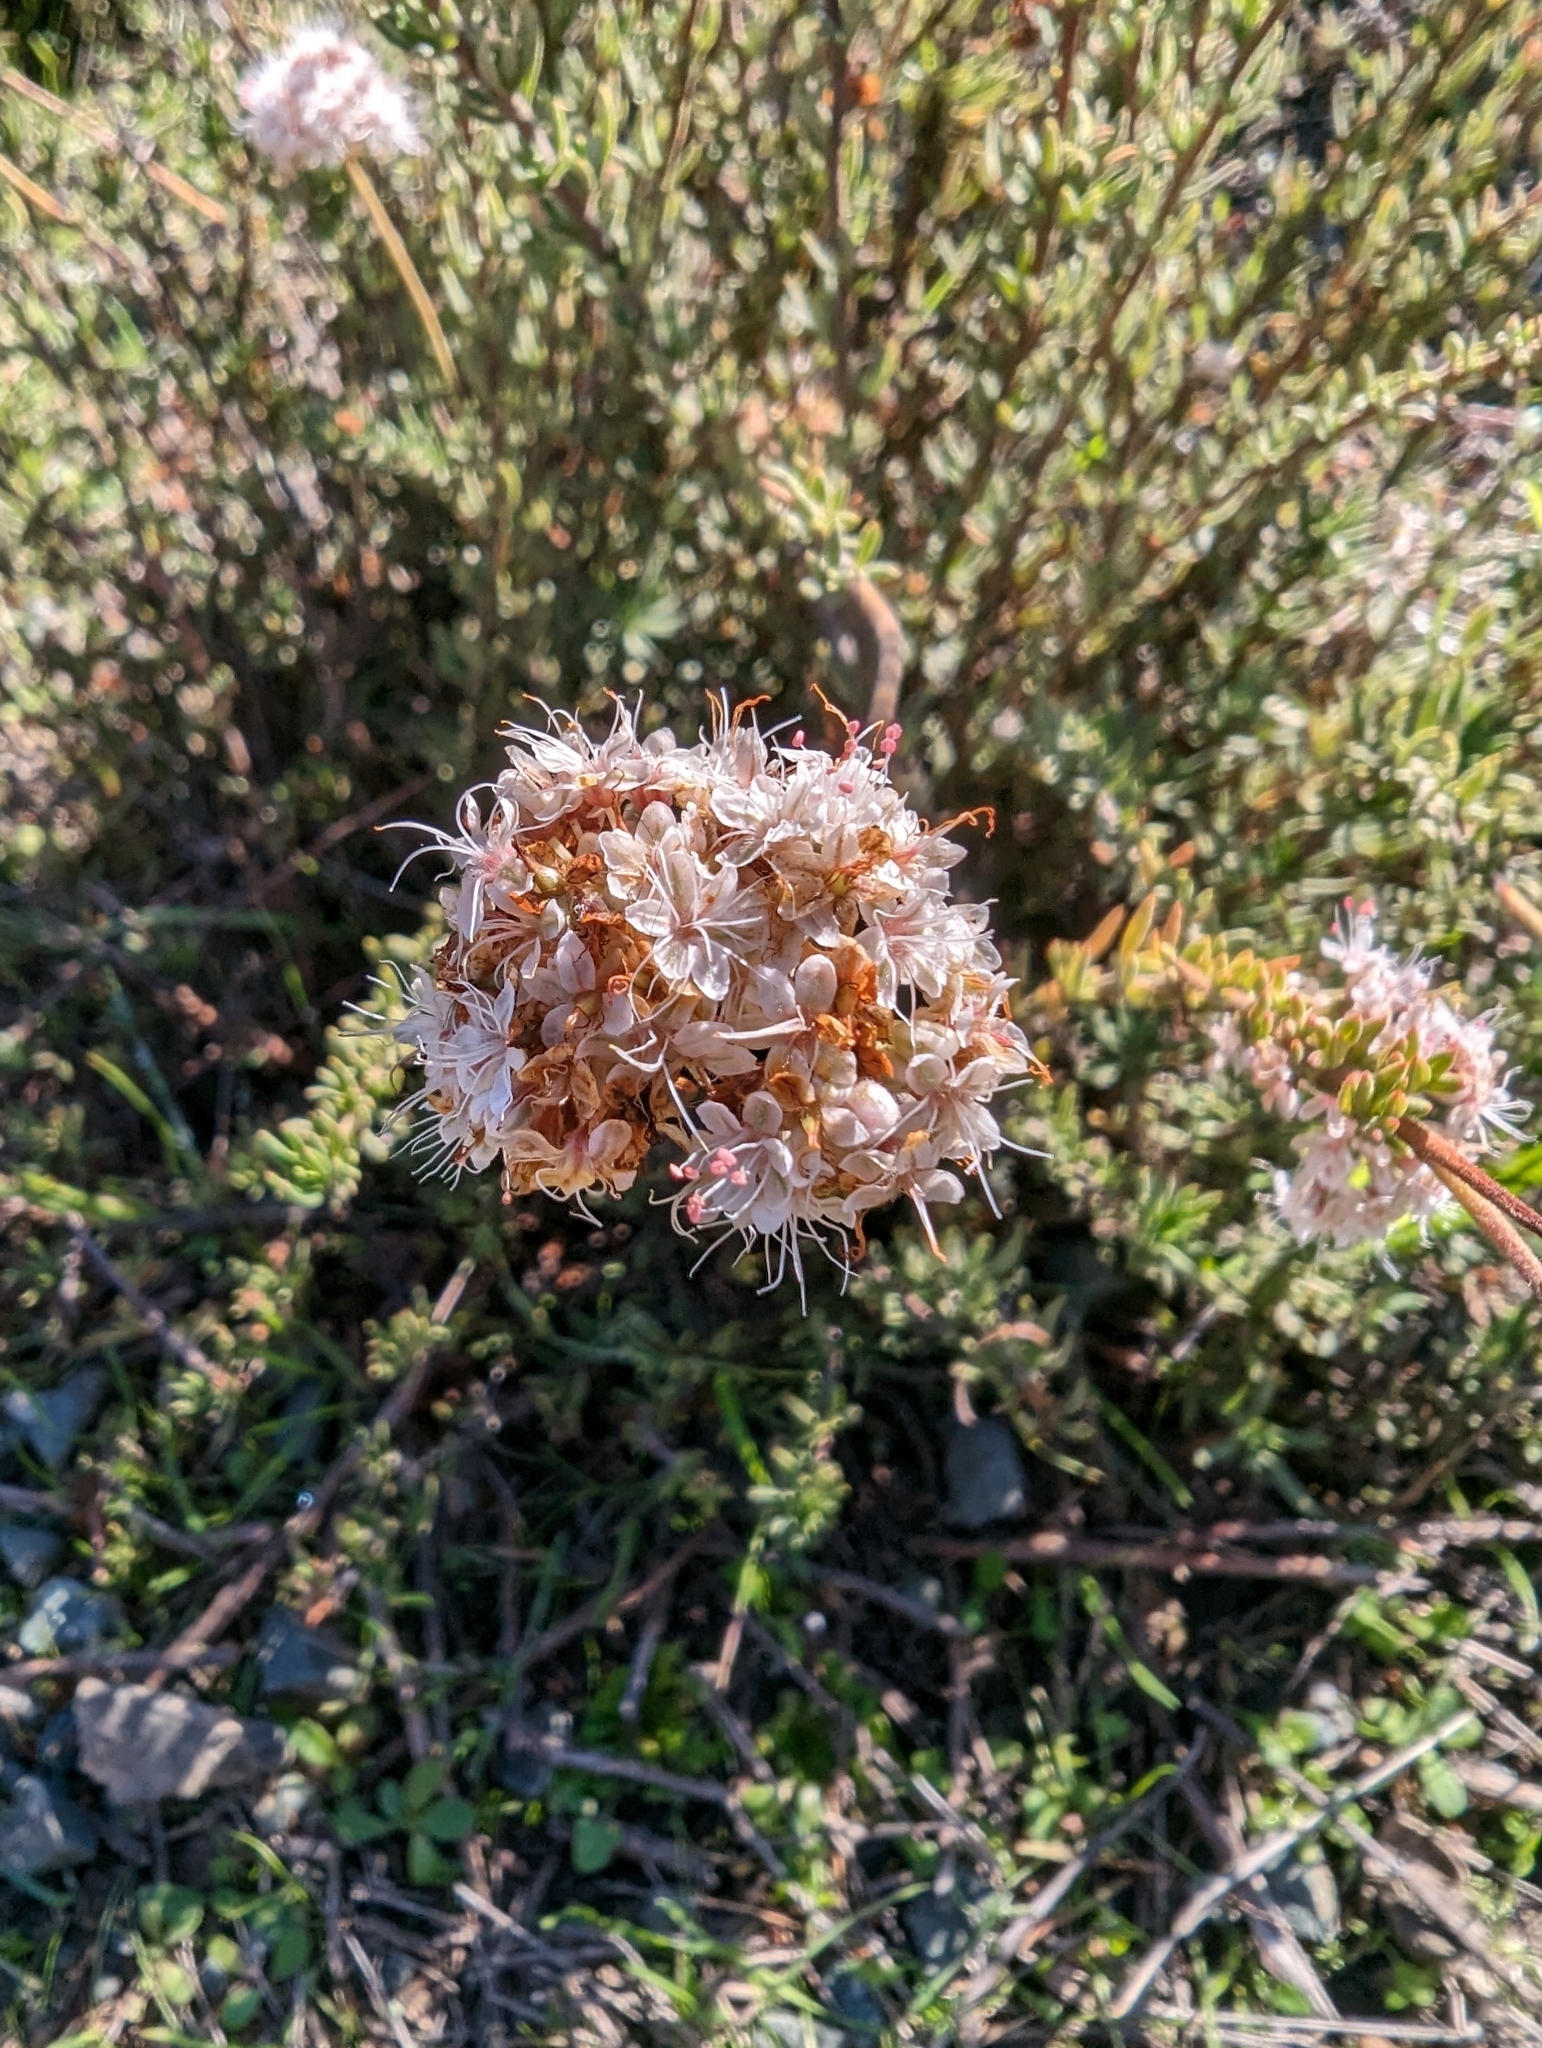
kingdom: Plantae
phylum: Tracheophyta
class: Magnoliopsida
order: Caryophyllales
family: Polygonaceae
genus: Eriogonum
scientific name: Eriogonum fasciculatum
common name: California wild buckwheat
